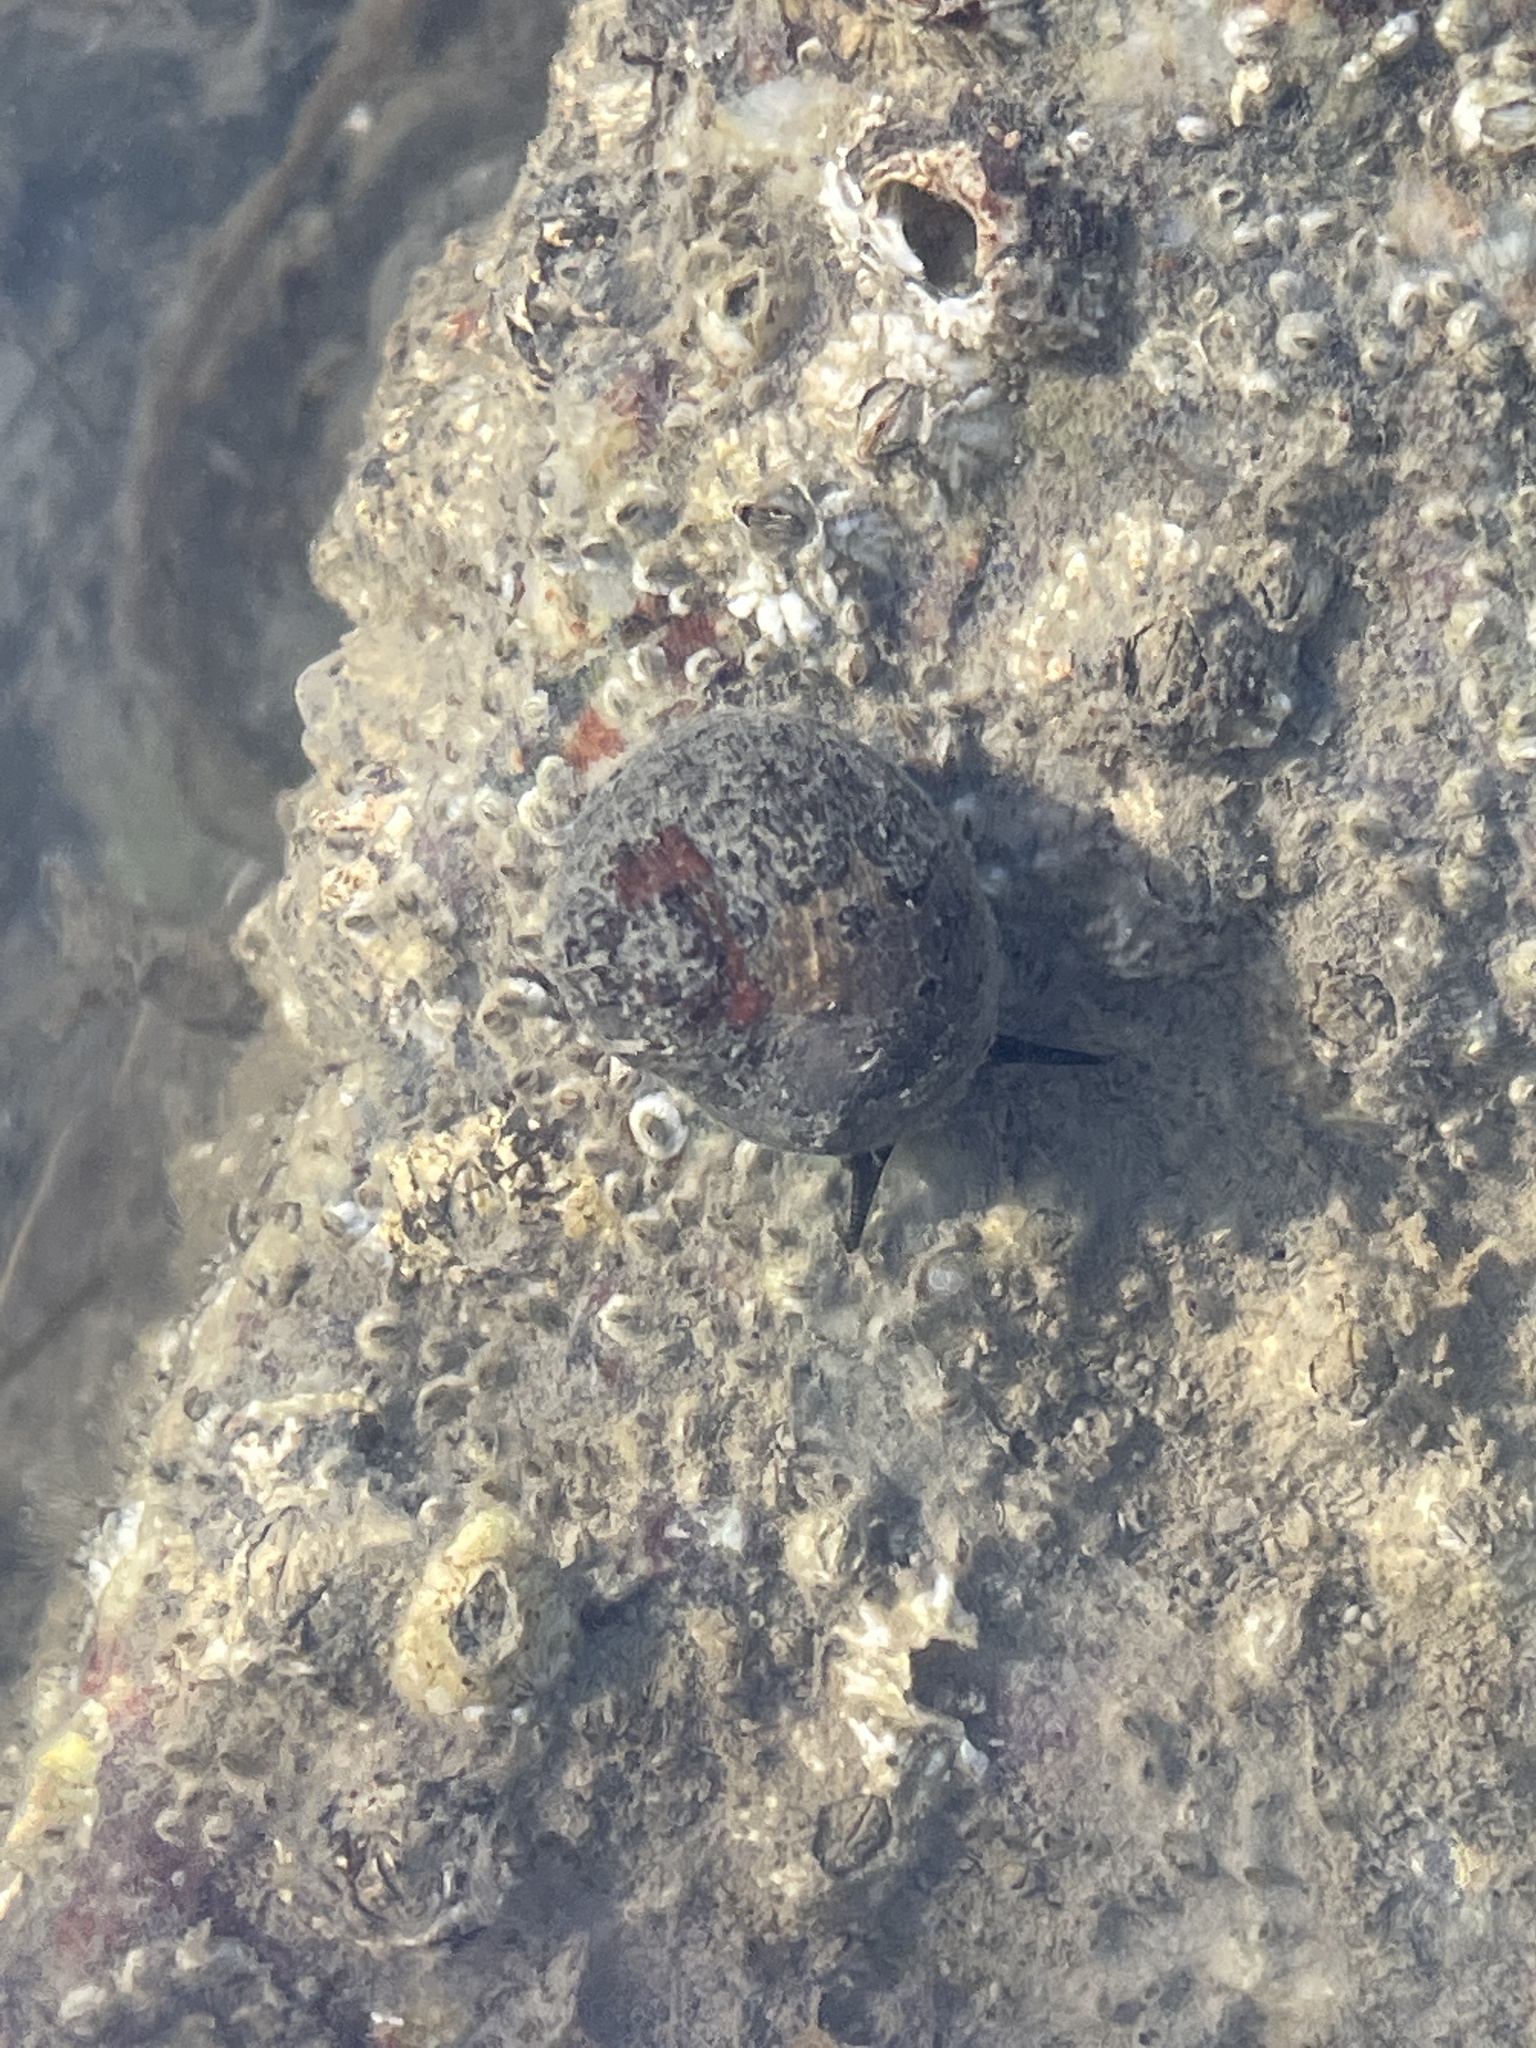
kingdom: Animalia
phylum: Mollusca
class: Gastropoda
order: Littorinimorpha
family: Littorinidae
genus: Littorina
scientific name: Littorina littorea
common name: Common periwinkle
